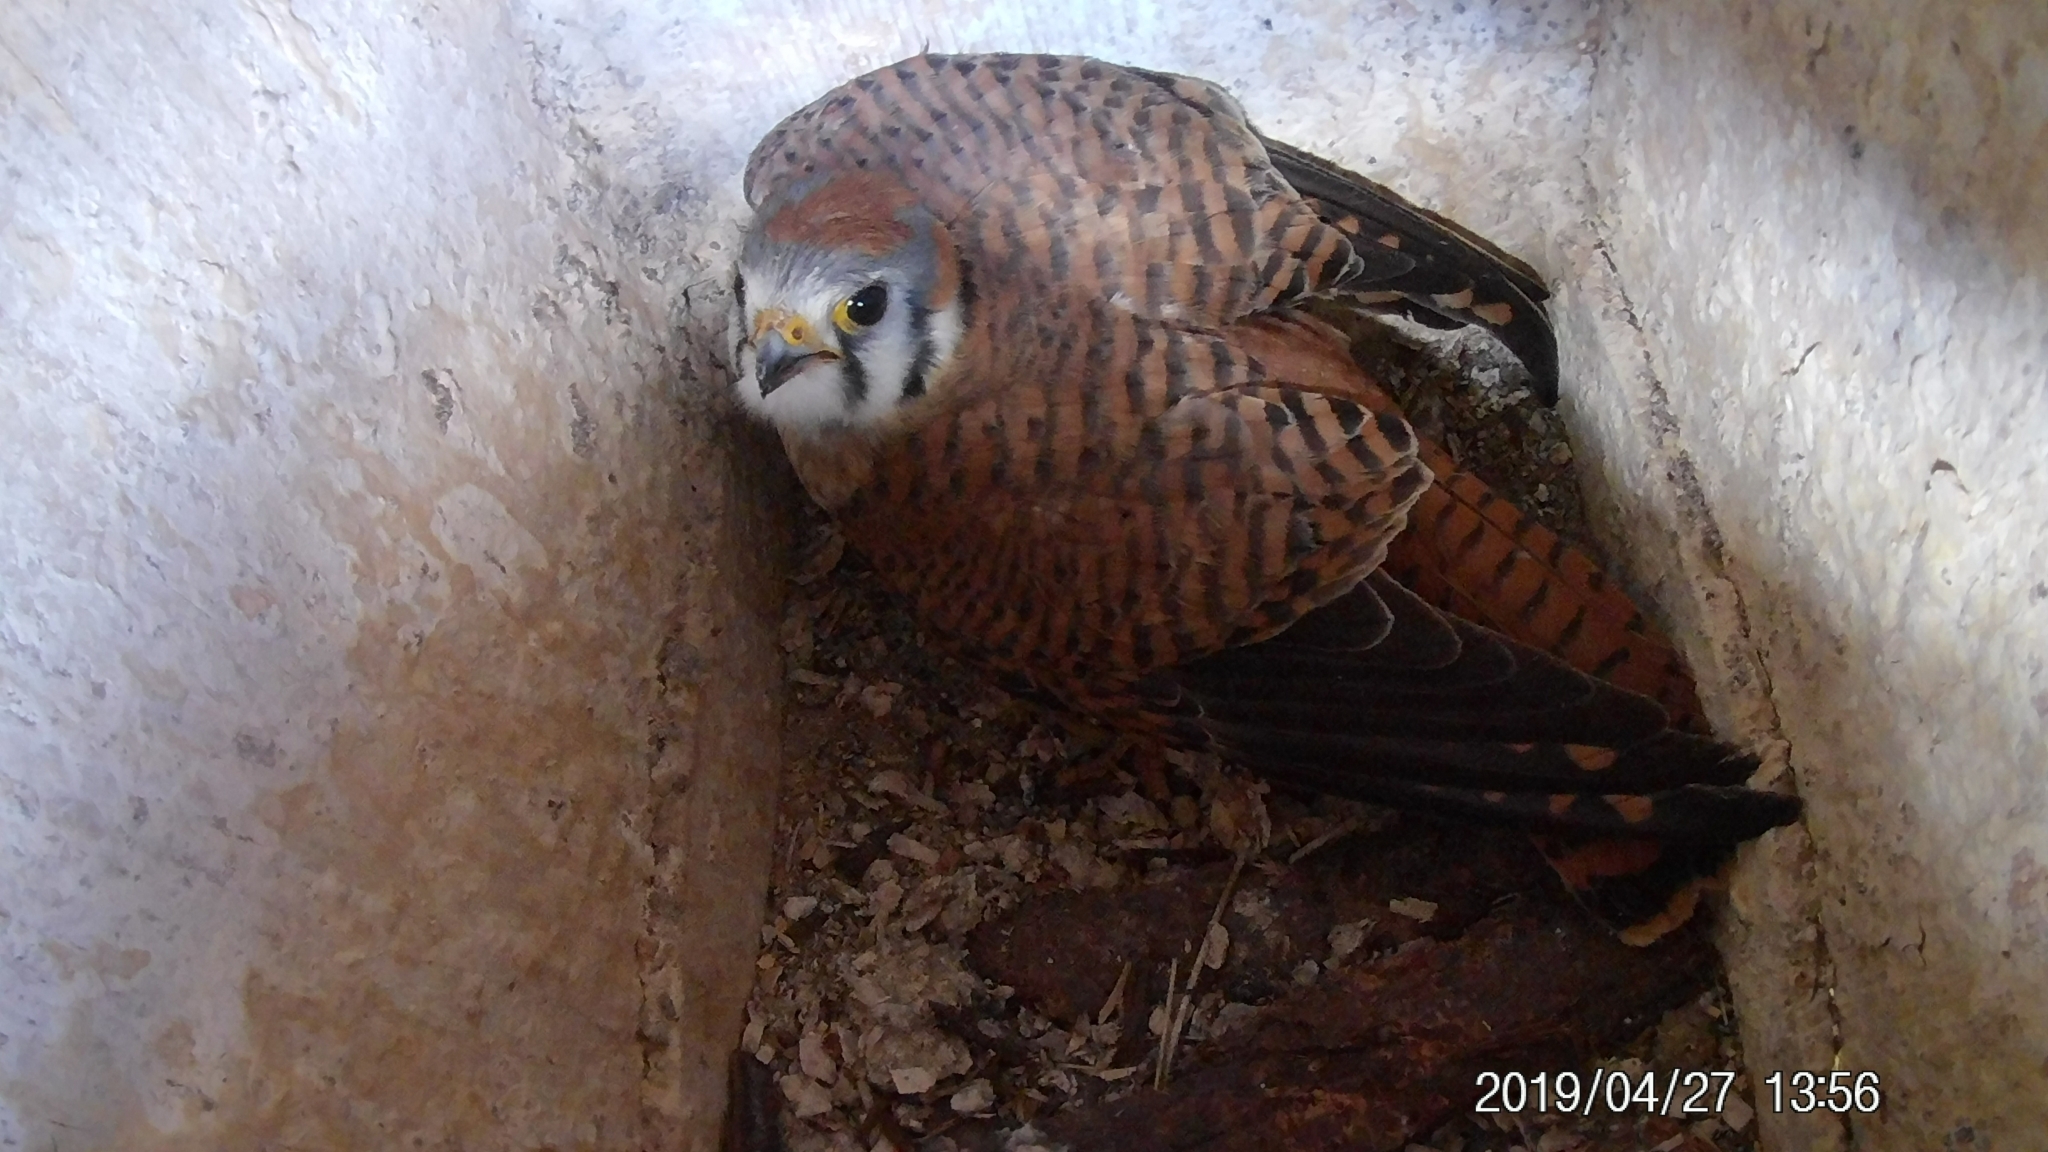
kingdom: Animalia
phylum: Chordata
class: Aves
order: Falconiformes
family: Falconidae
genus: Falco
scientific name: Falco sparverius
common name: American kestrel
